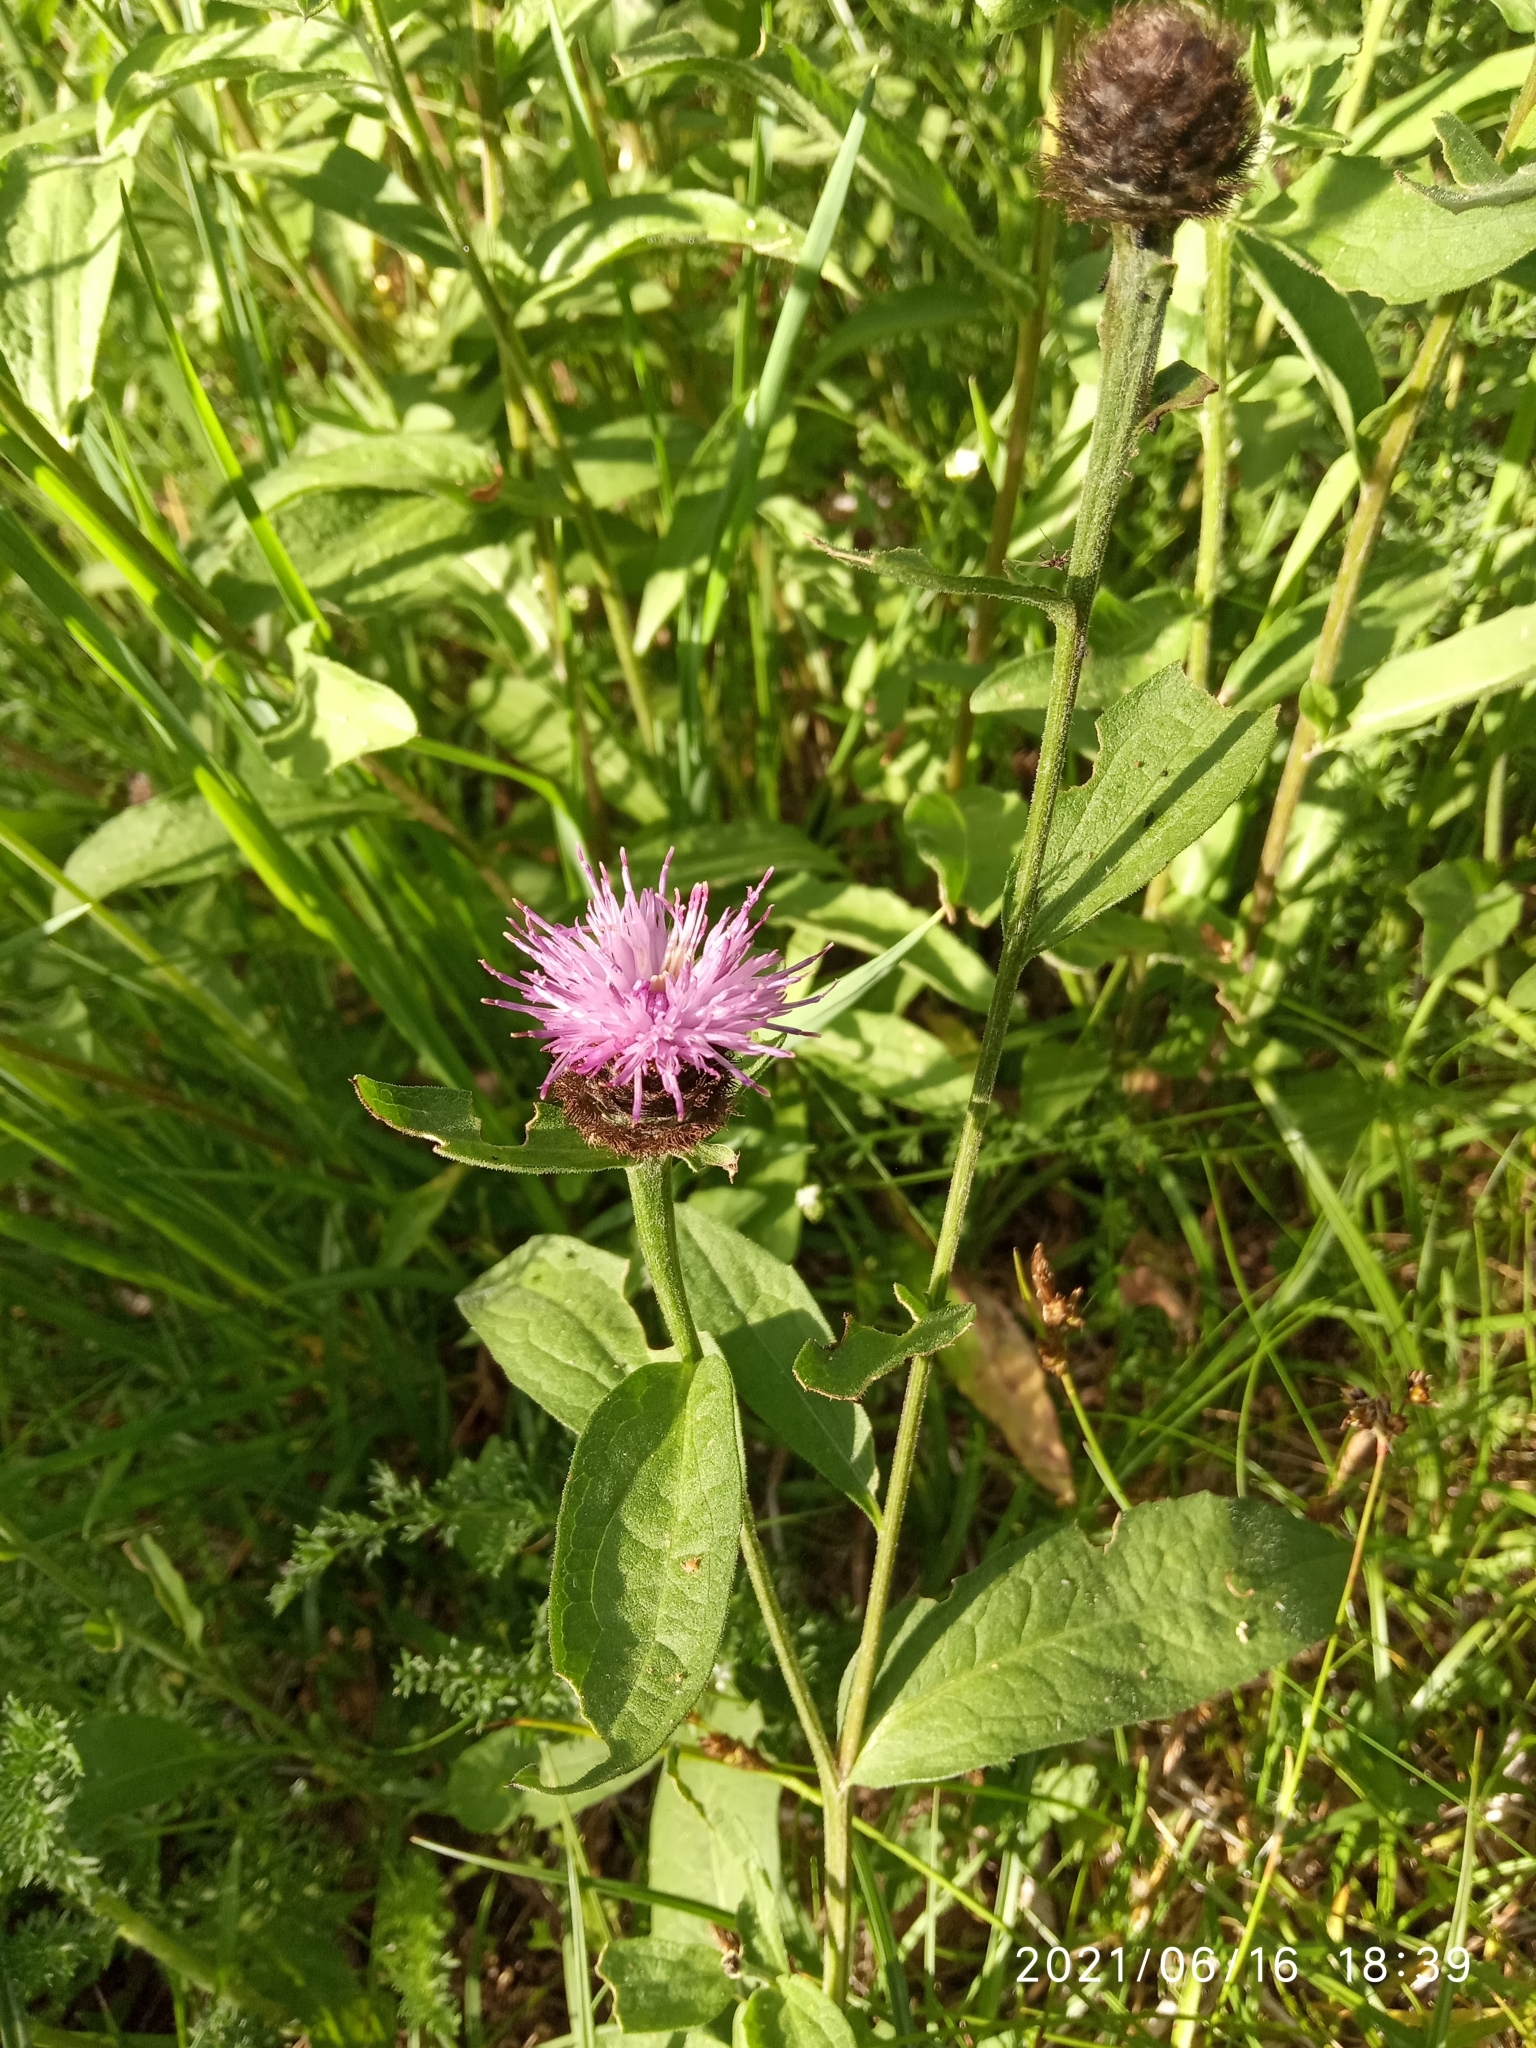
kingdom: Plantae
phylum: Tracheophyta
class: Magnoliopsida
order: Asterales
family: Asteraceae
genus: Centaurea
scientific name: Centaurea nigra
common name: Lesser knapweed
